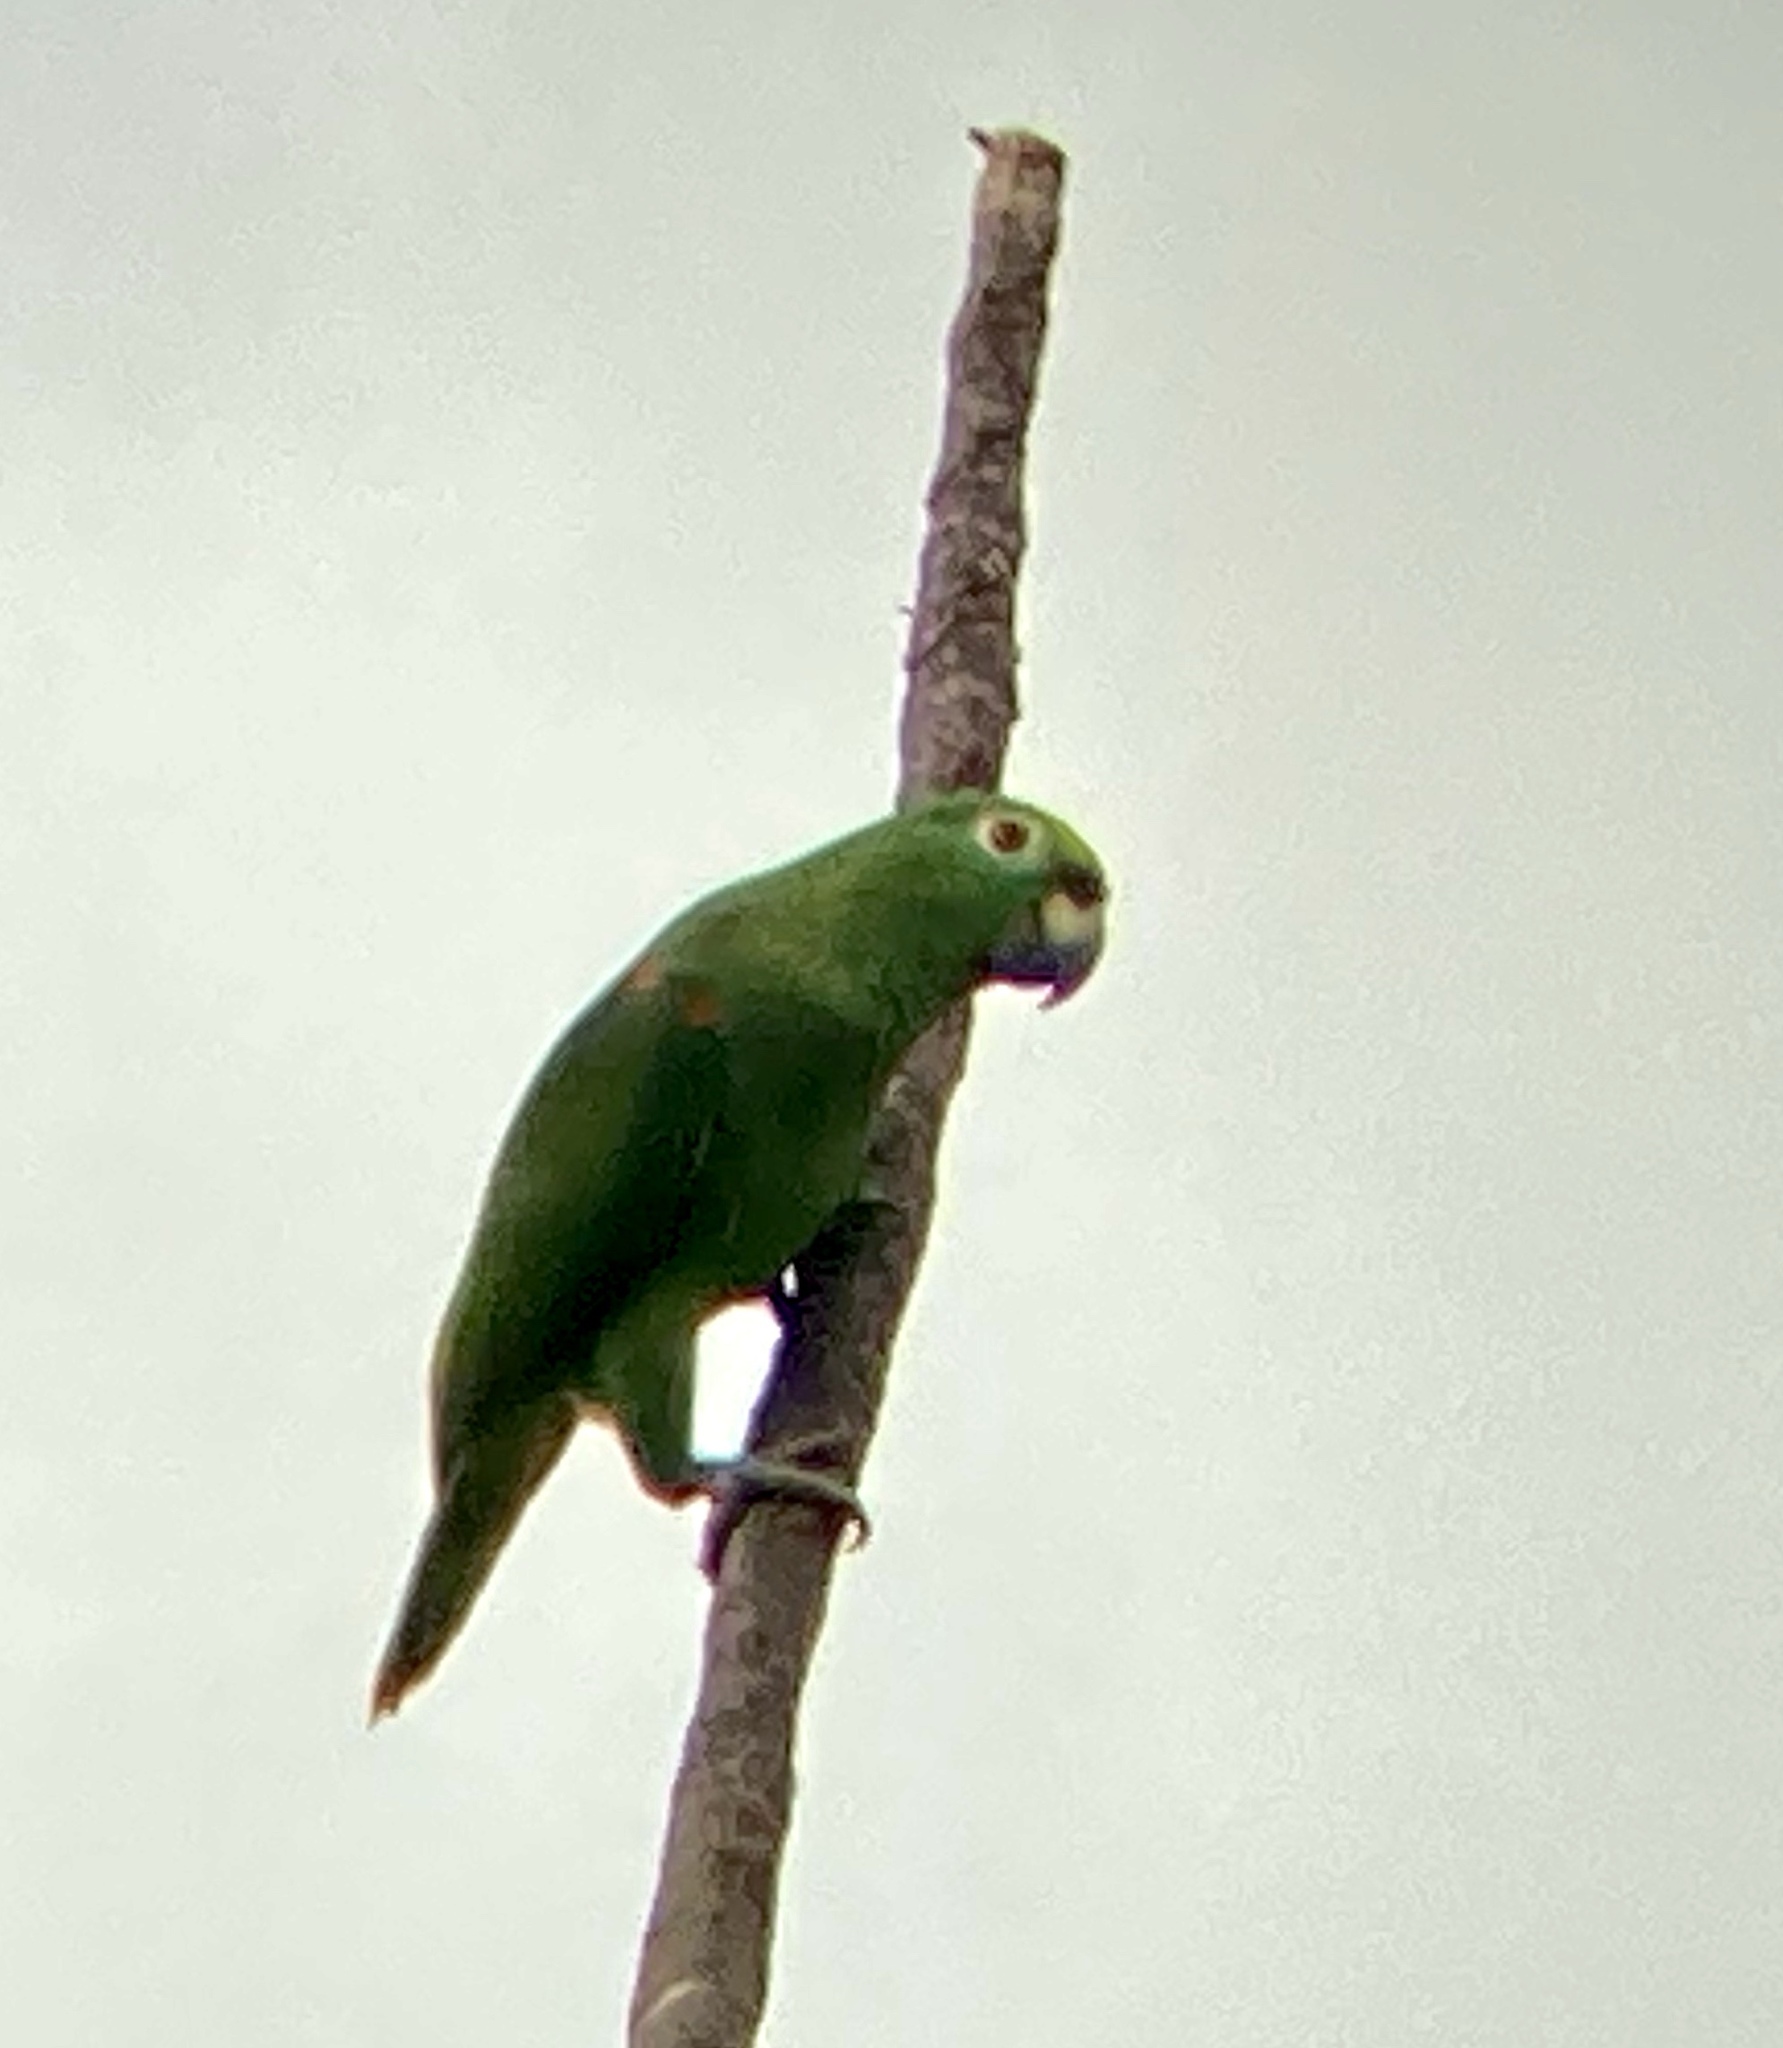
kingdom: Animalia
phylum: Chordata
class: Aves
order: Psittaciformes
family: Psittacidae
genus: Amazona
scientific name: Amazona ochrocephala
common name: Yellow-crowned amazon
